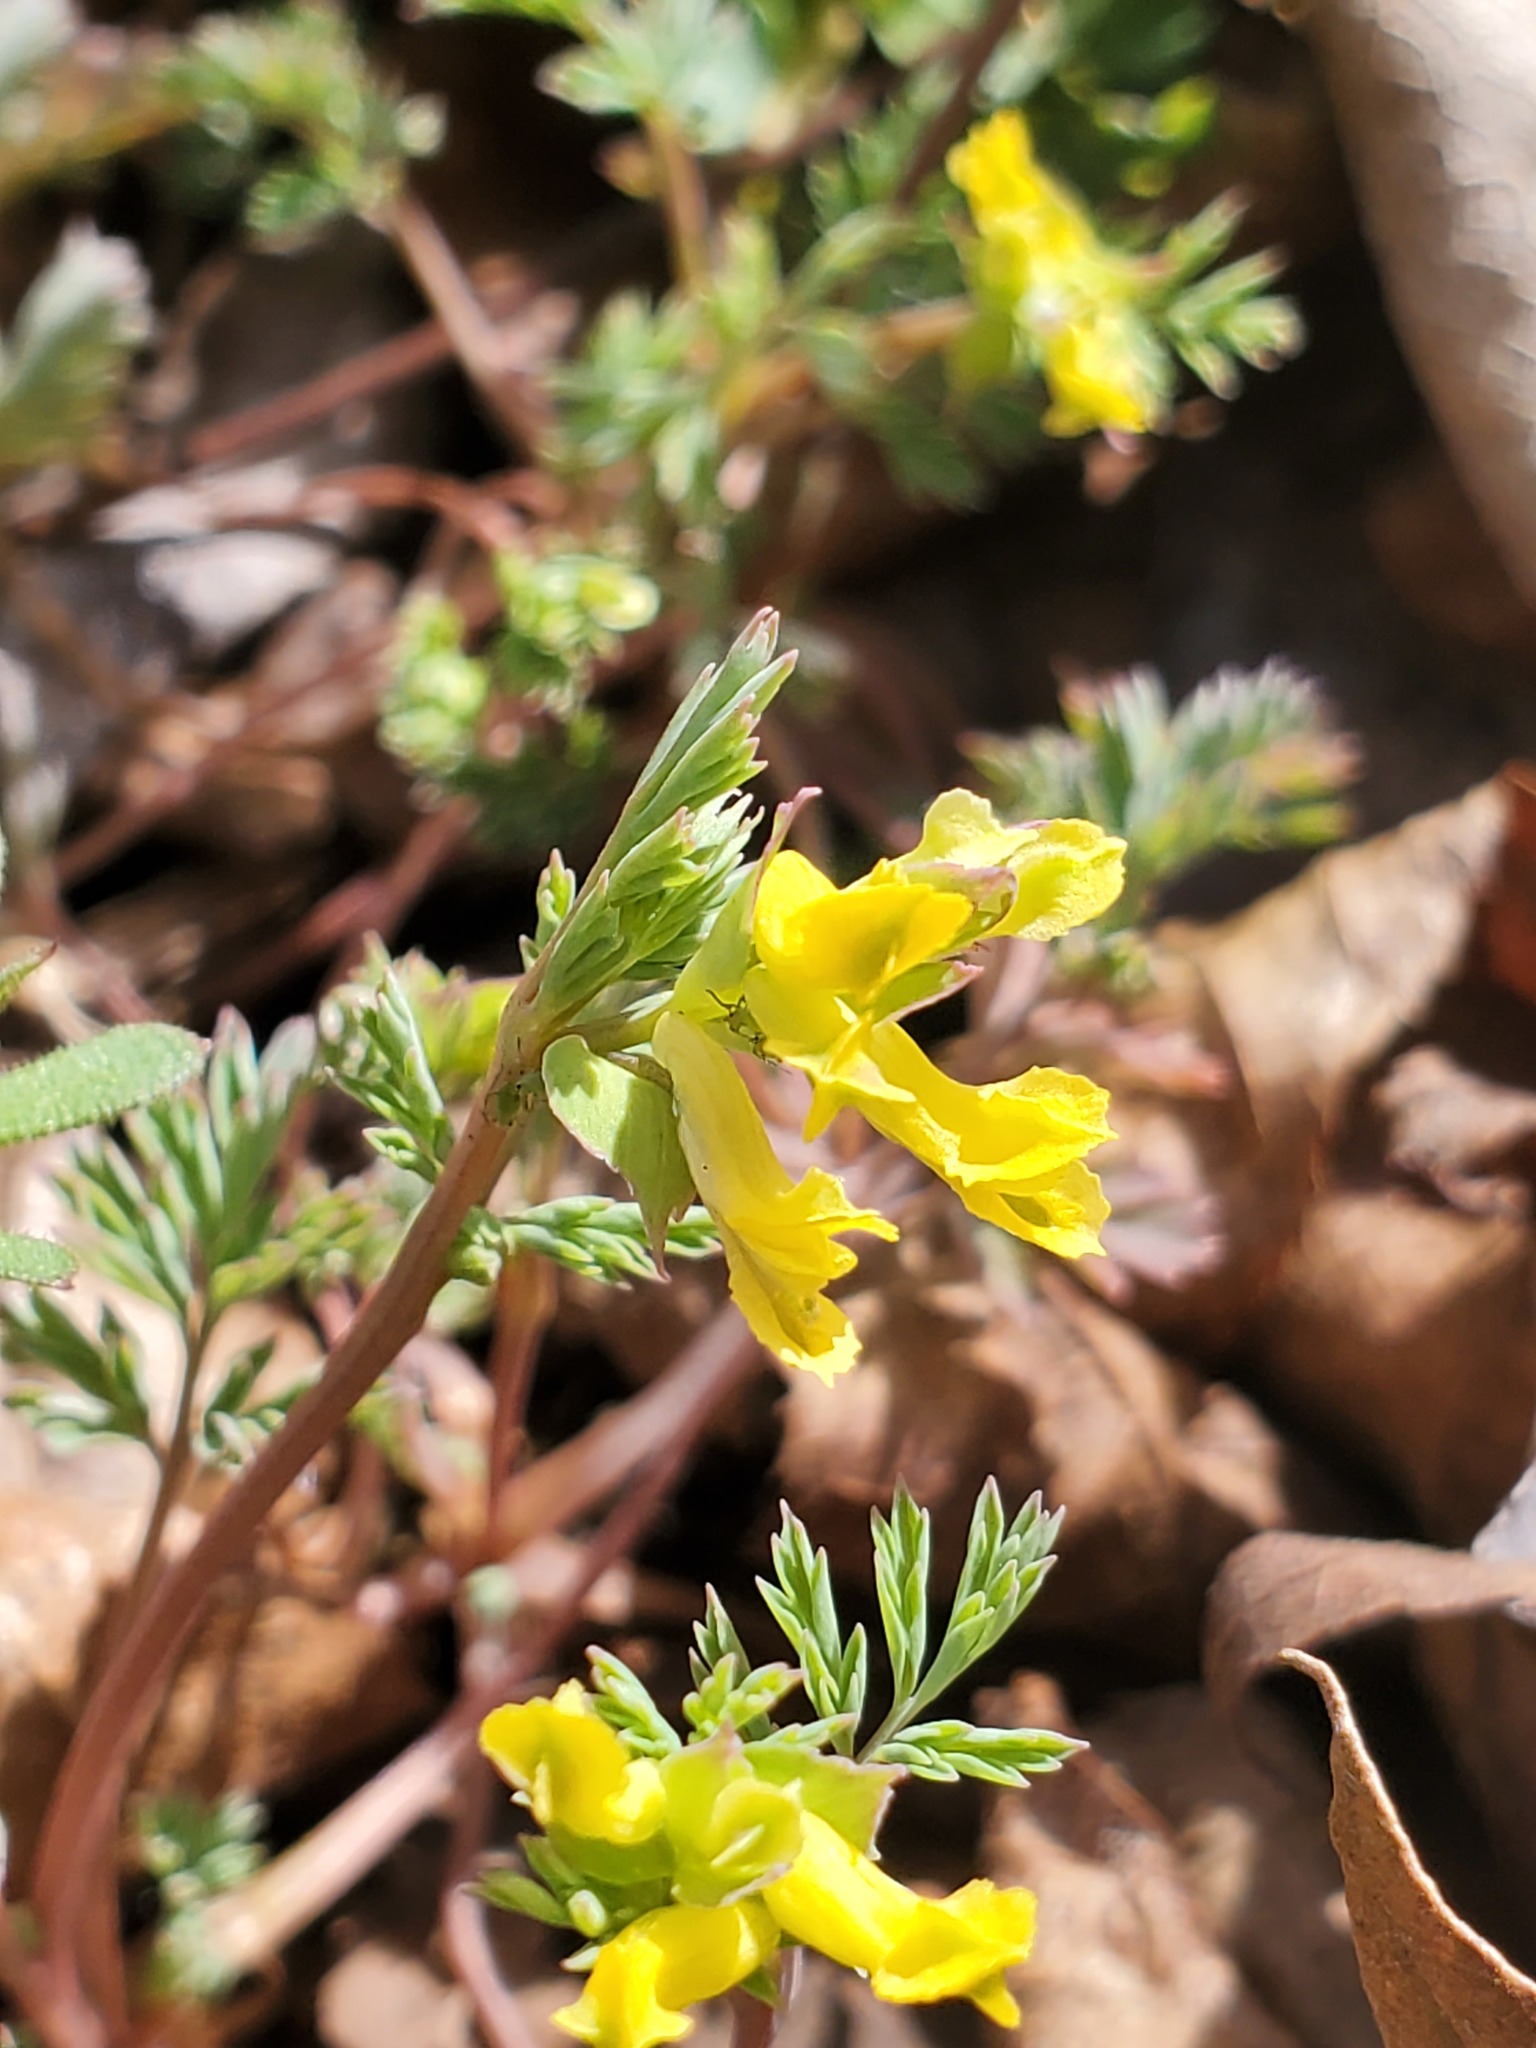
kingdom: Plantae
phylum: Tracheophyta
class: Magnoliopsida
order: Ranunculales
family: Papaveraceae
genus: Corydalis
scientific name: Corydalis flavula
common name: Yellow corydalis
